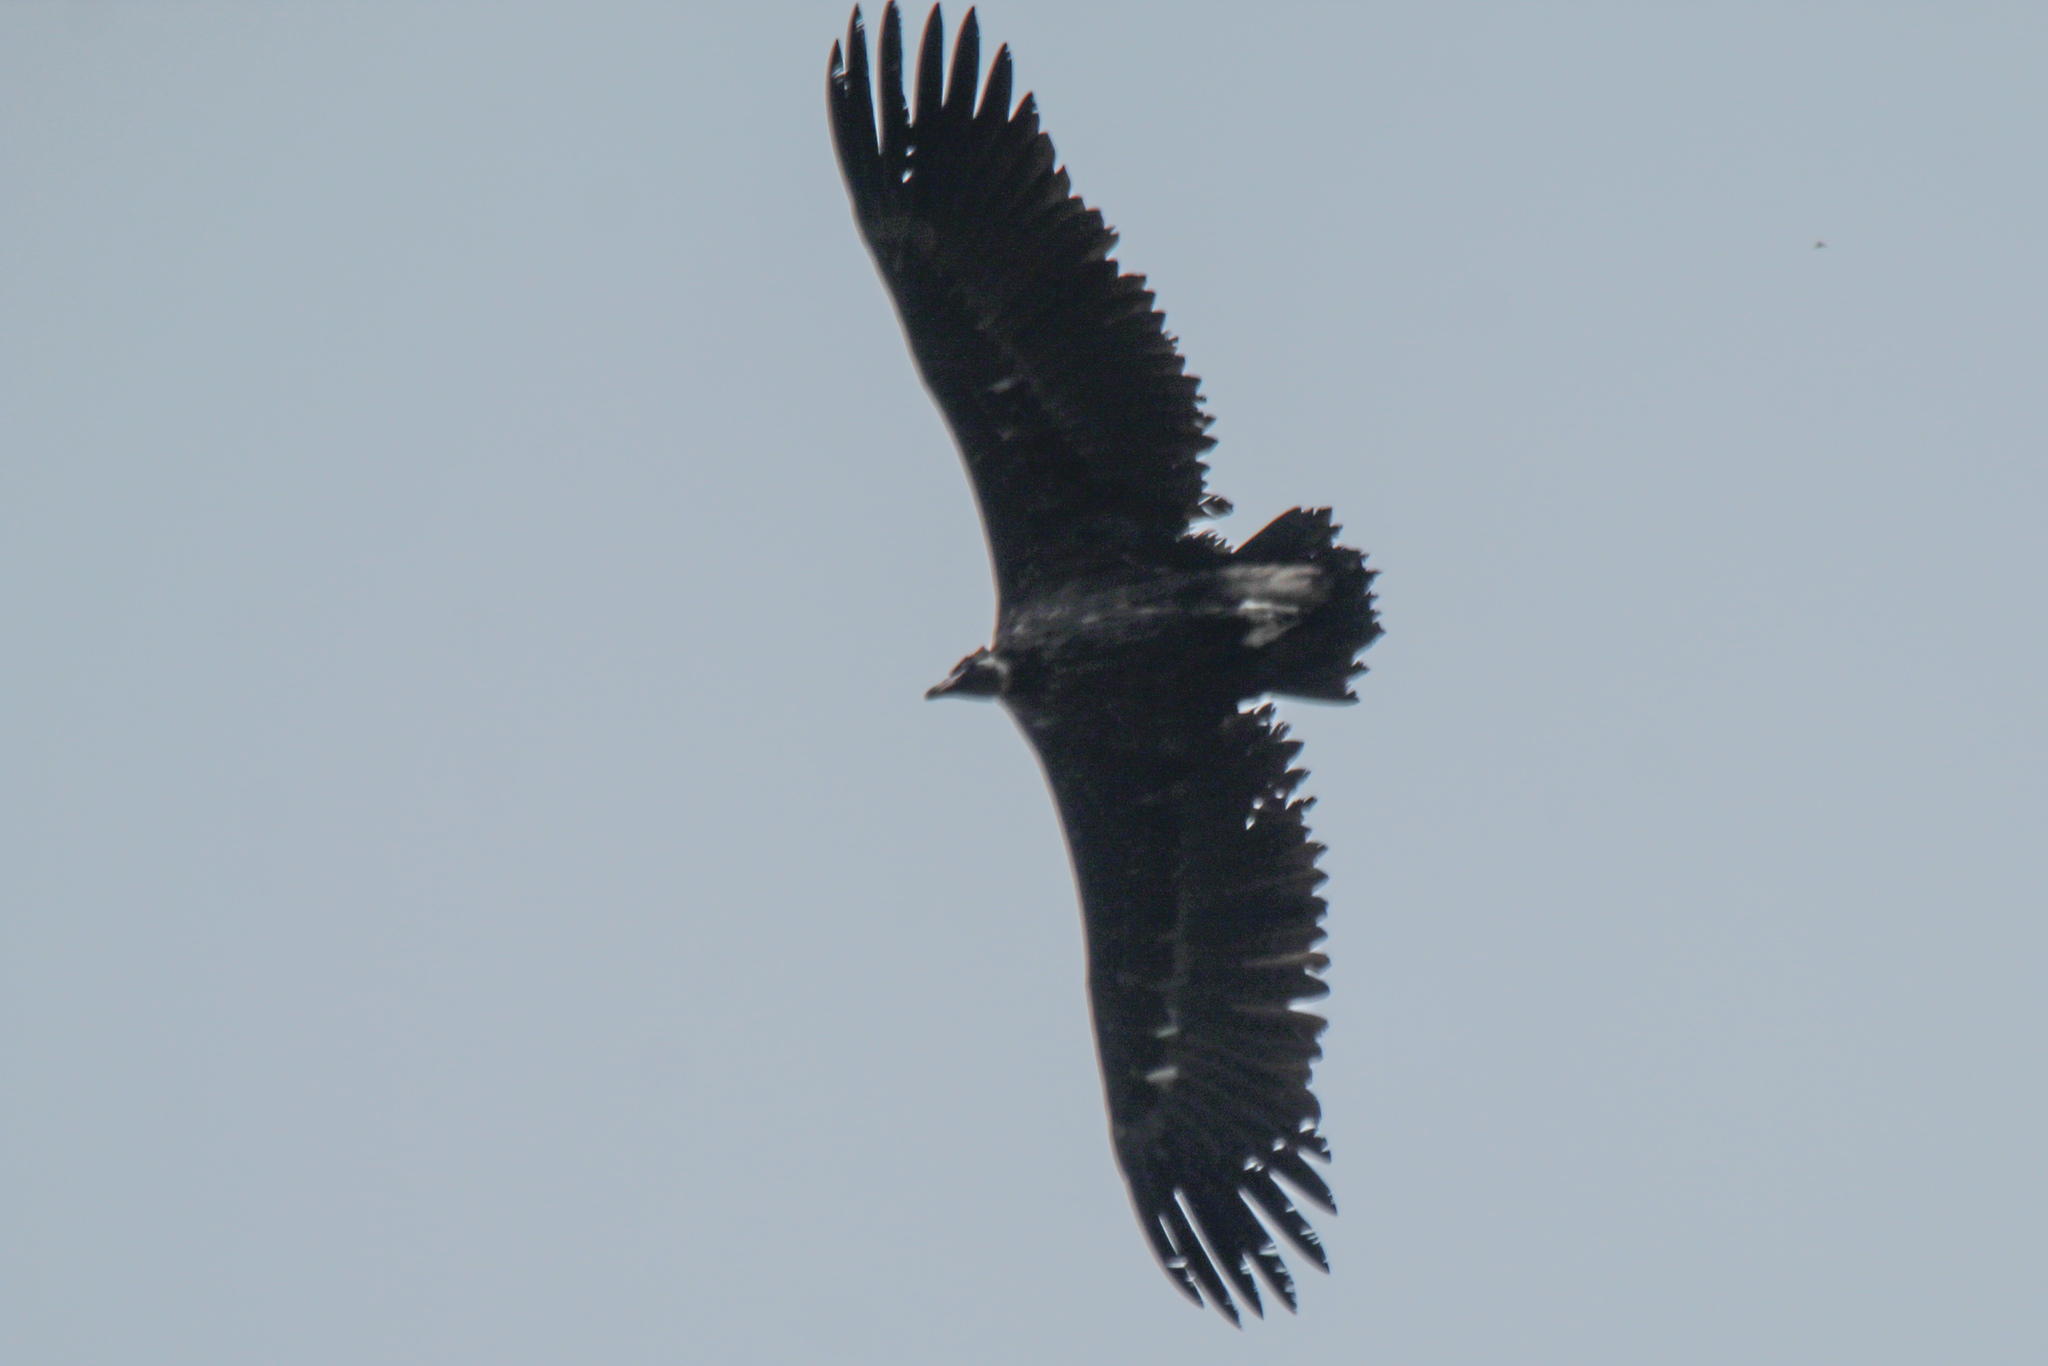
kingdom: Animalia
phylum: Chordata
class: Aves
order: Accipitriformes
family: Accipitridae
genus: Aegypius
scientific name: Aegypius monachus
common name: Cinereous vulture
